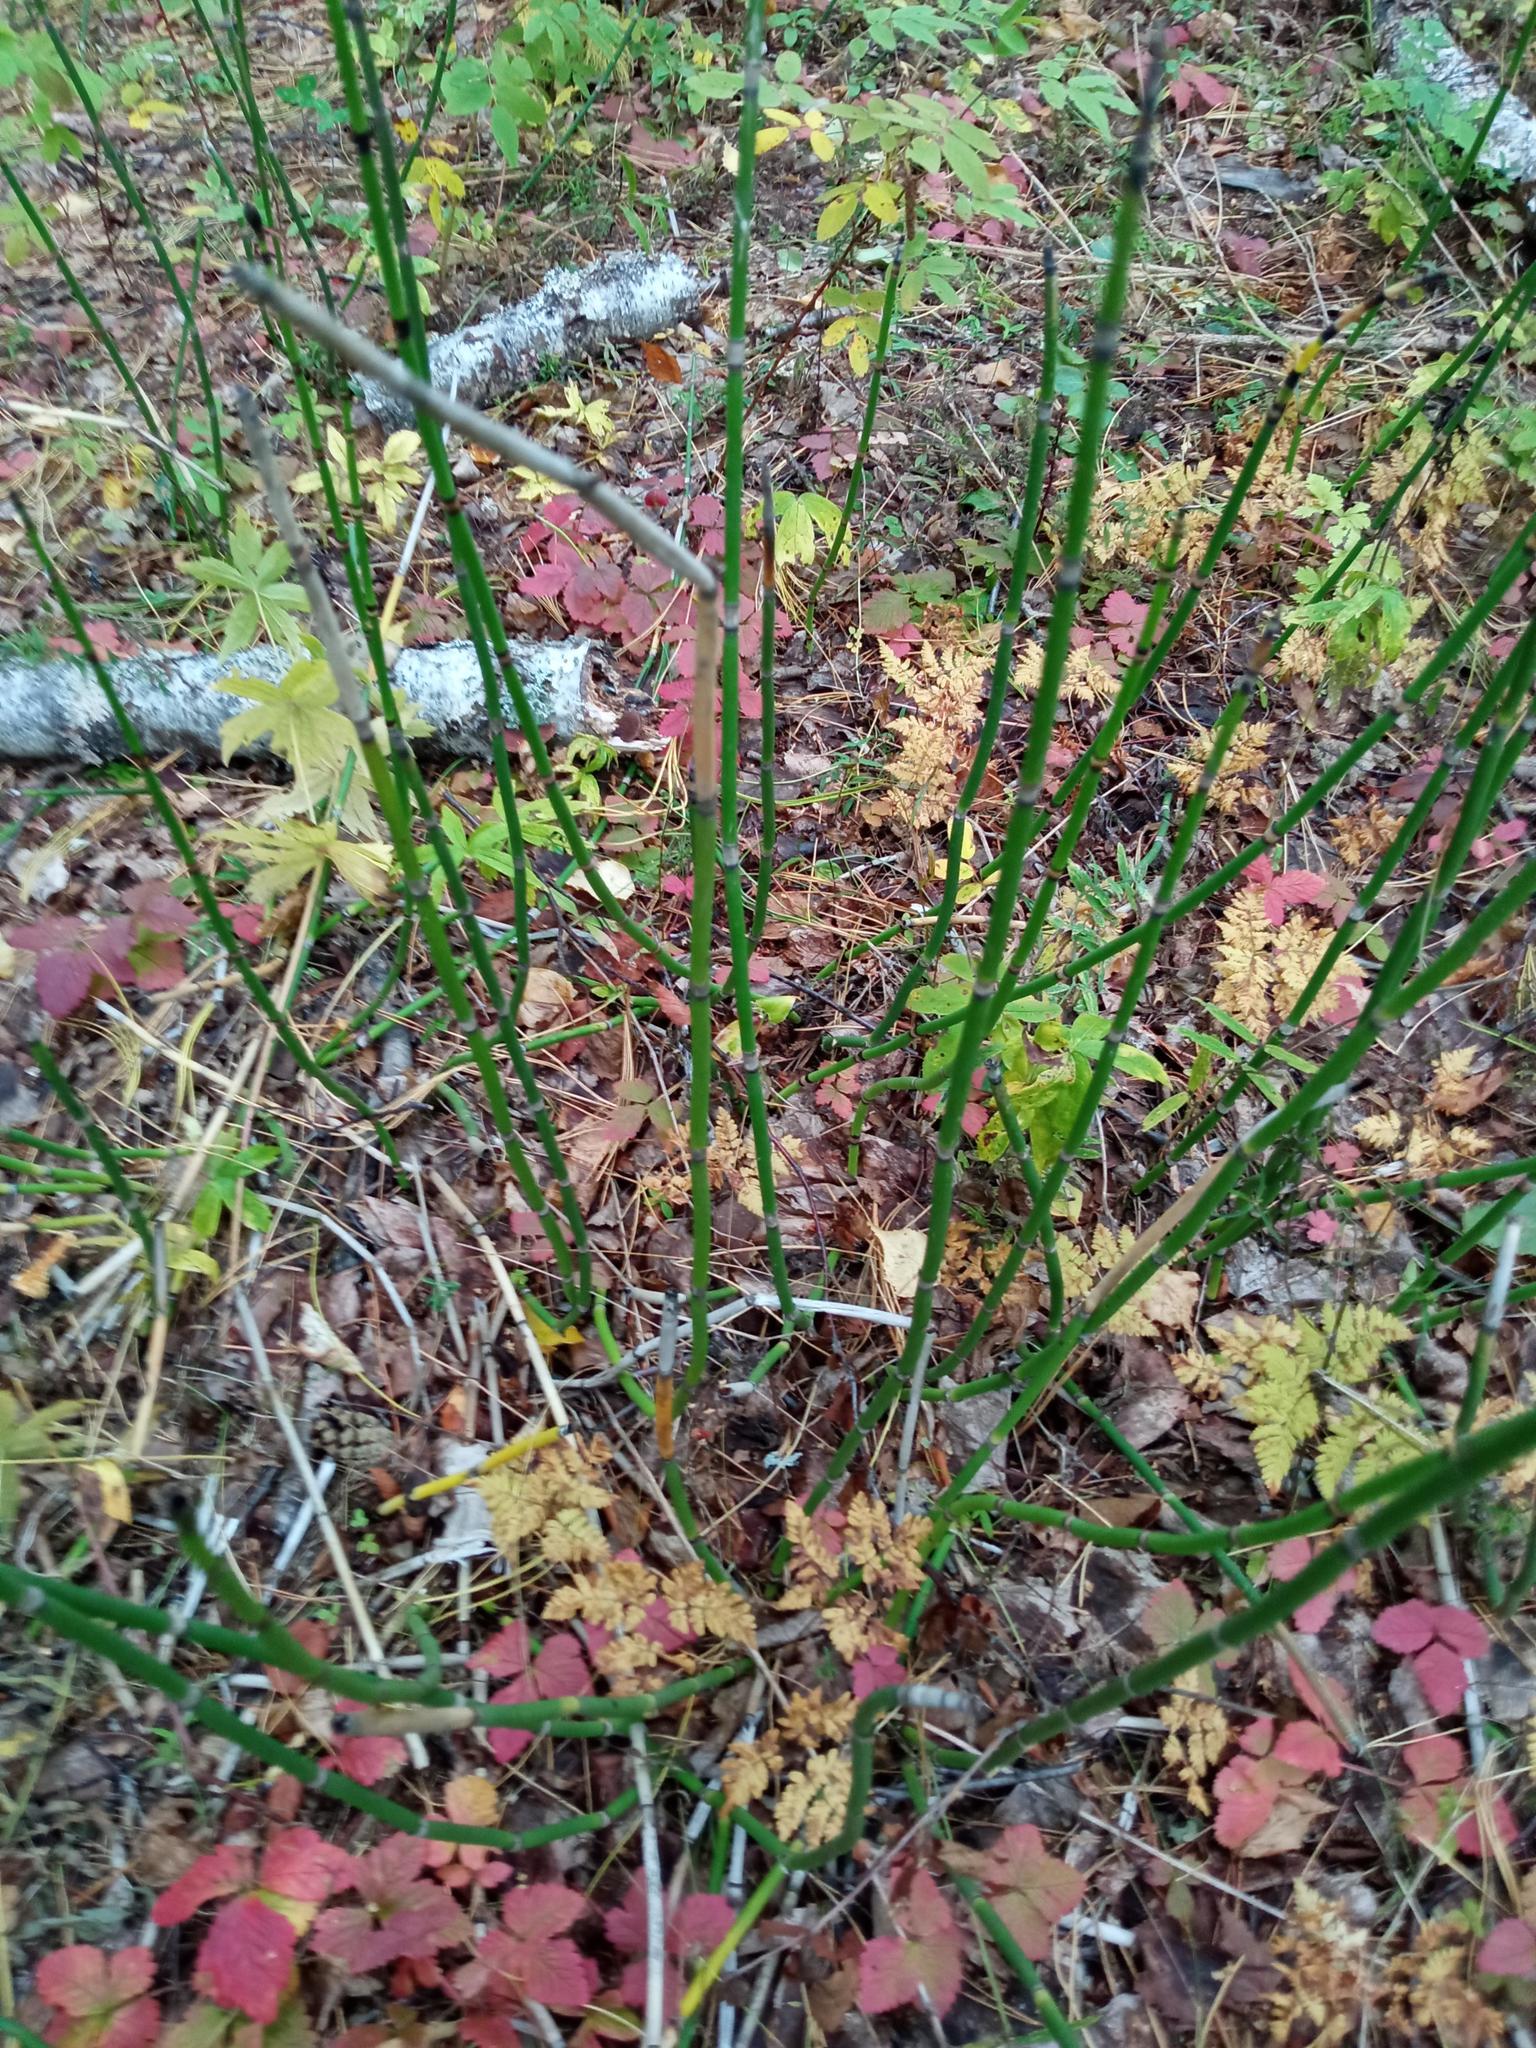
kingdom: Plantae
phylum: Tracheophyta
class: Polypodiopsida
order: Equisetales
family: Equisetaceae
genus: Equisetum
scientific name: Equisetum hyemale
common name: Rough horsetail
